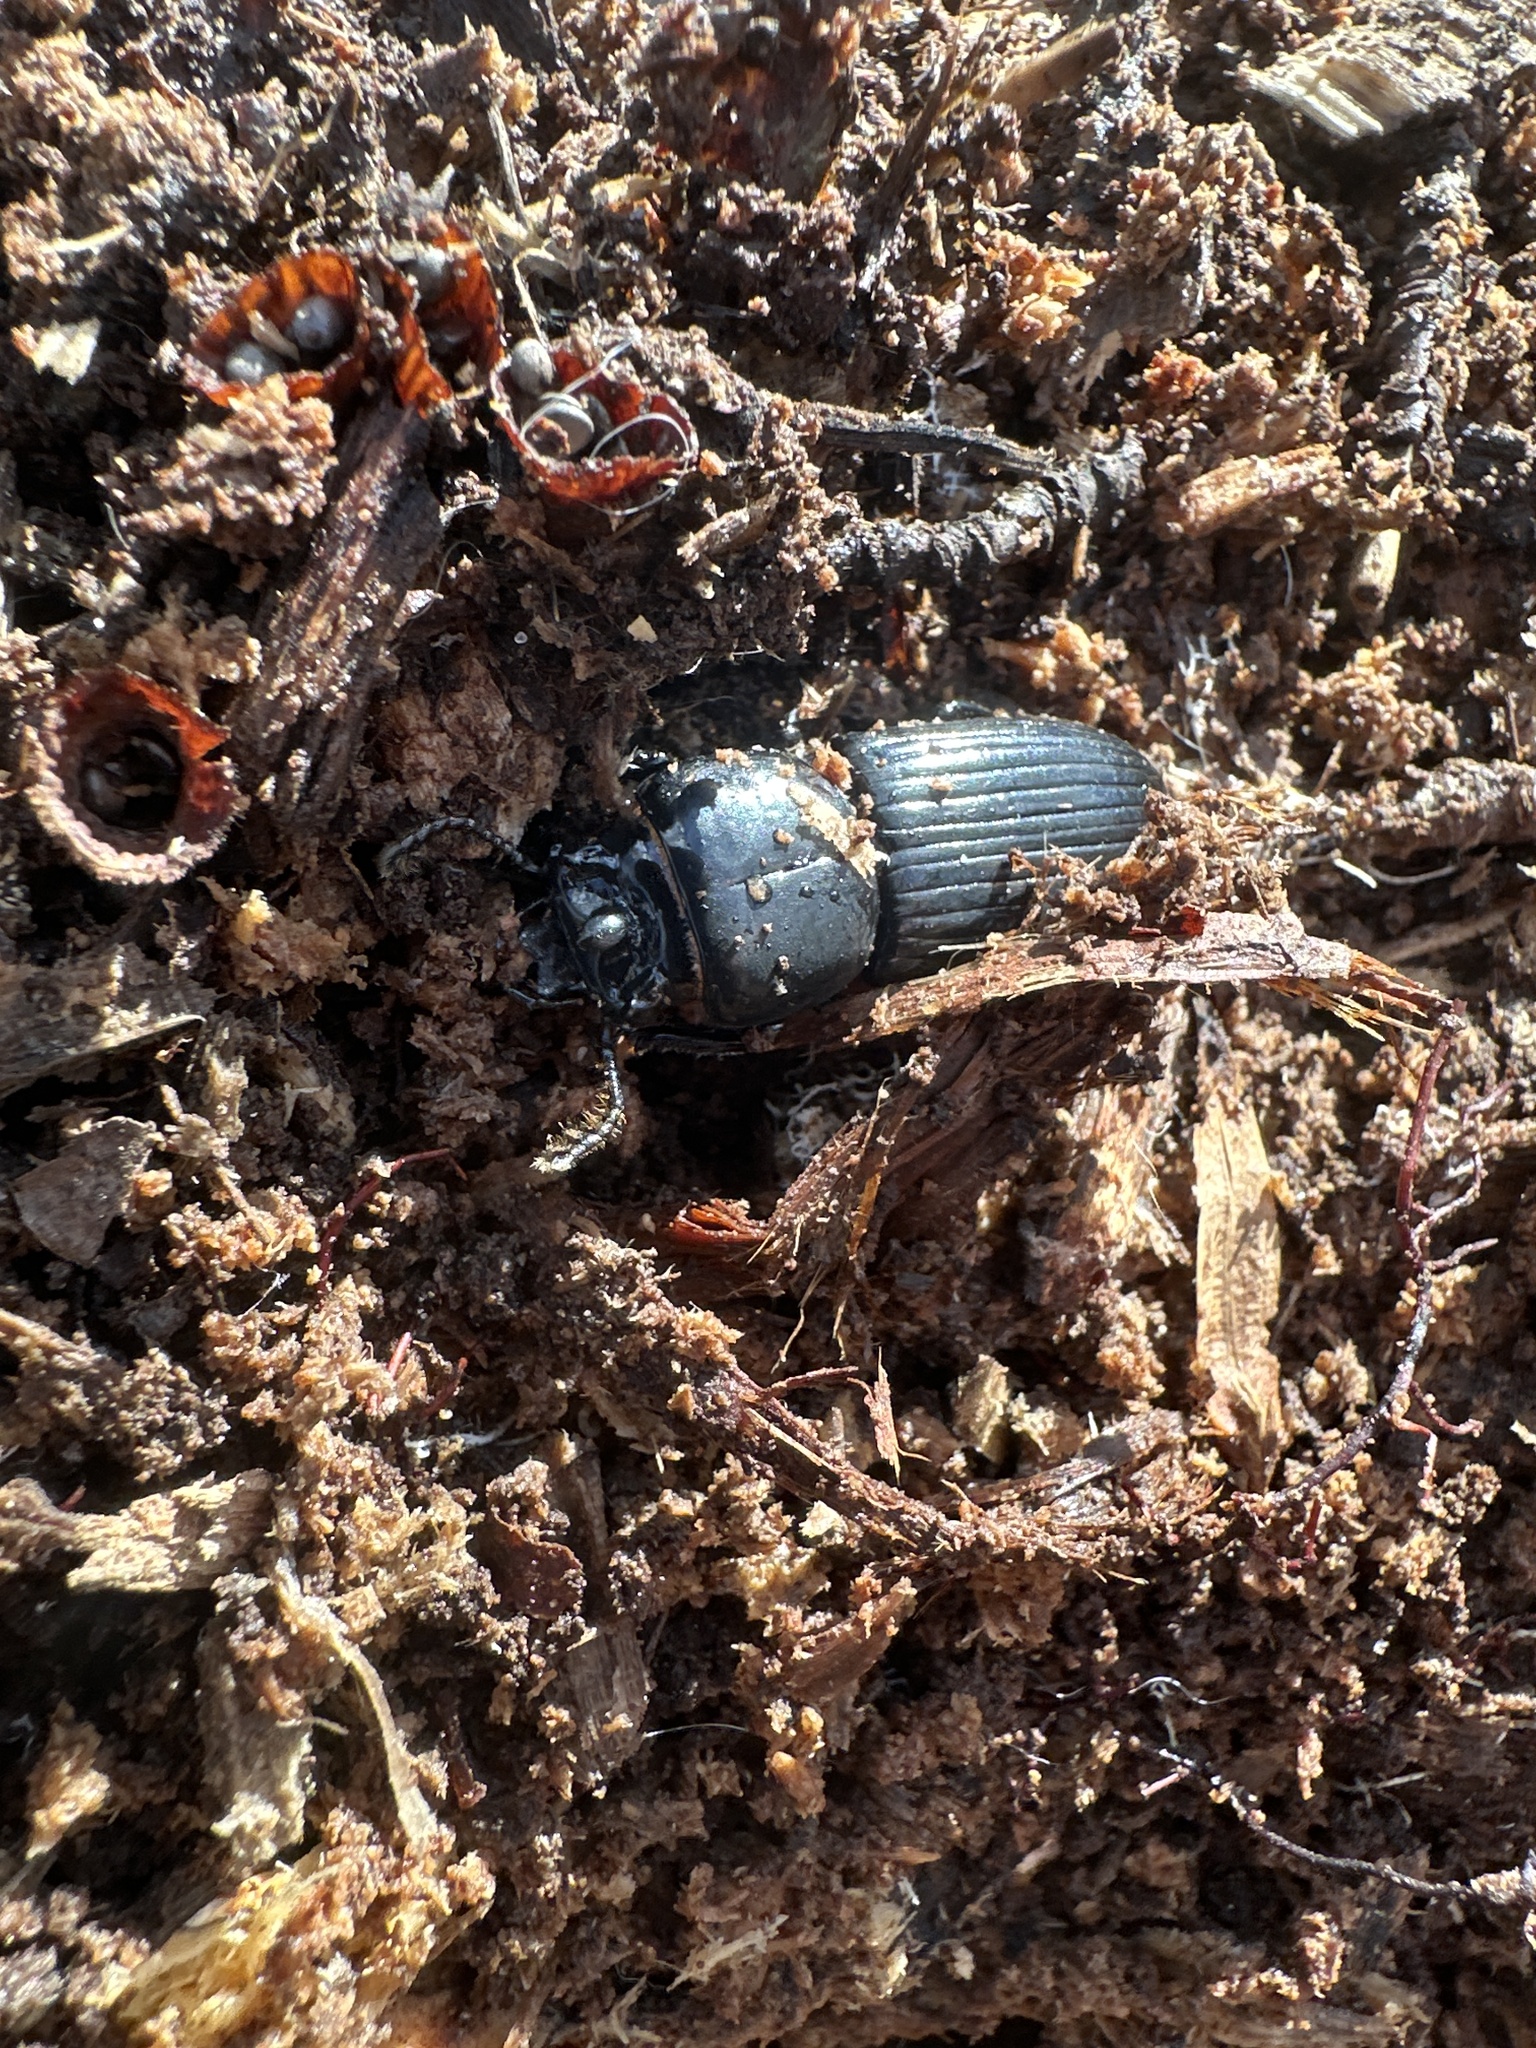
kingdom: Animalia
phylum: Arthropoda
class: Insecta
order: Coleoptera
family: Passalidae
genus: Odontotaenius
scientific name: Odontotaenius disjunctus
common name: Patent leather beetle
